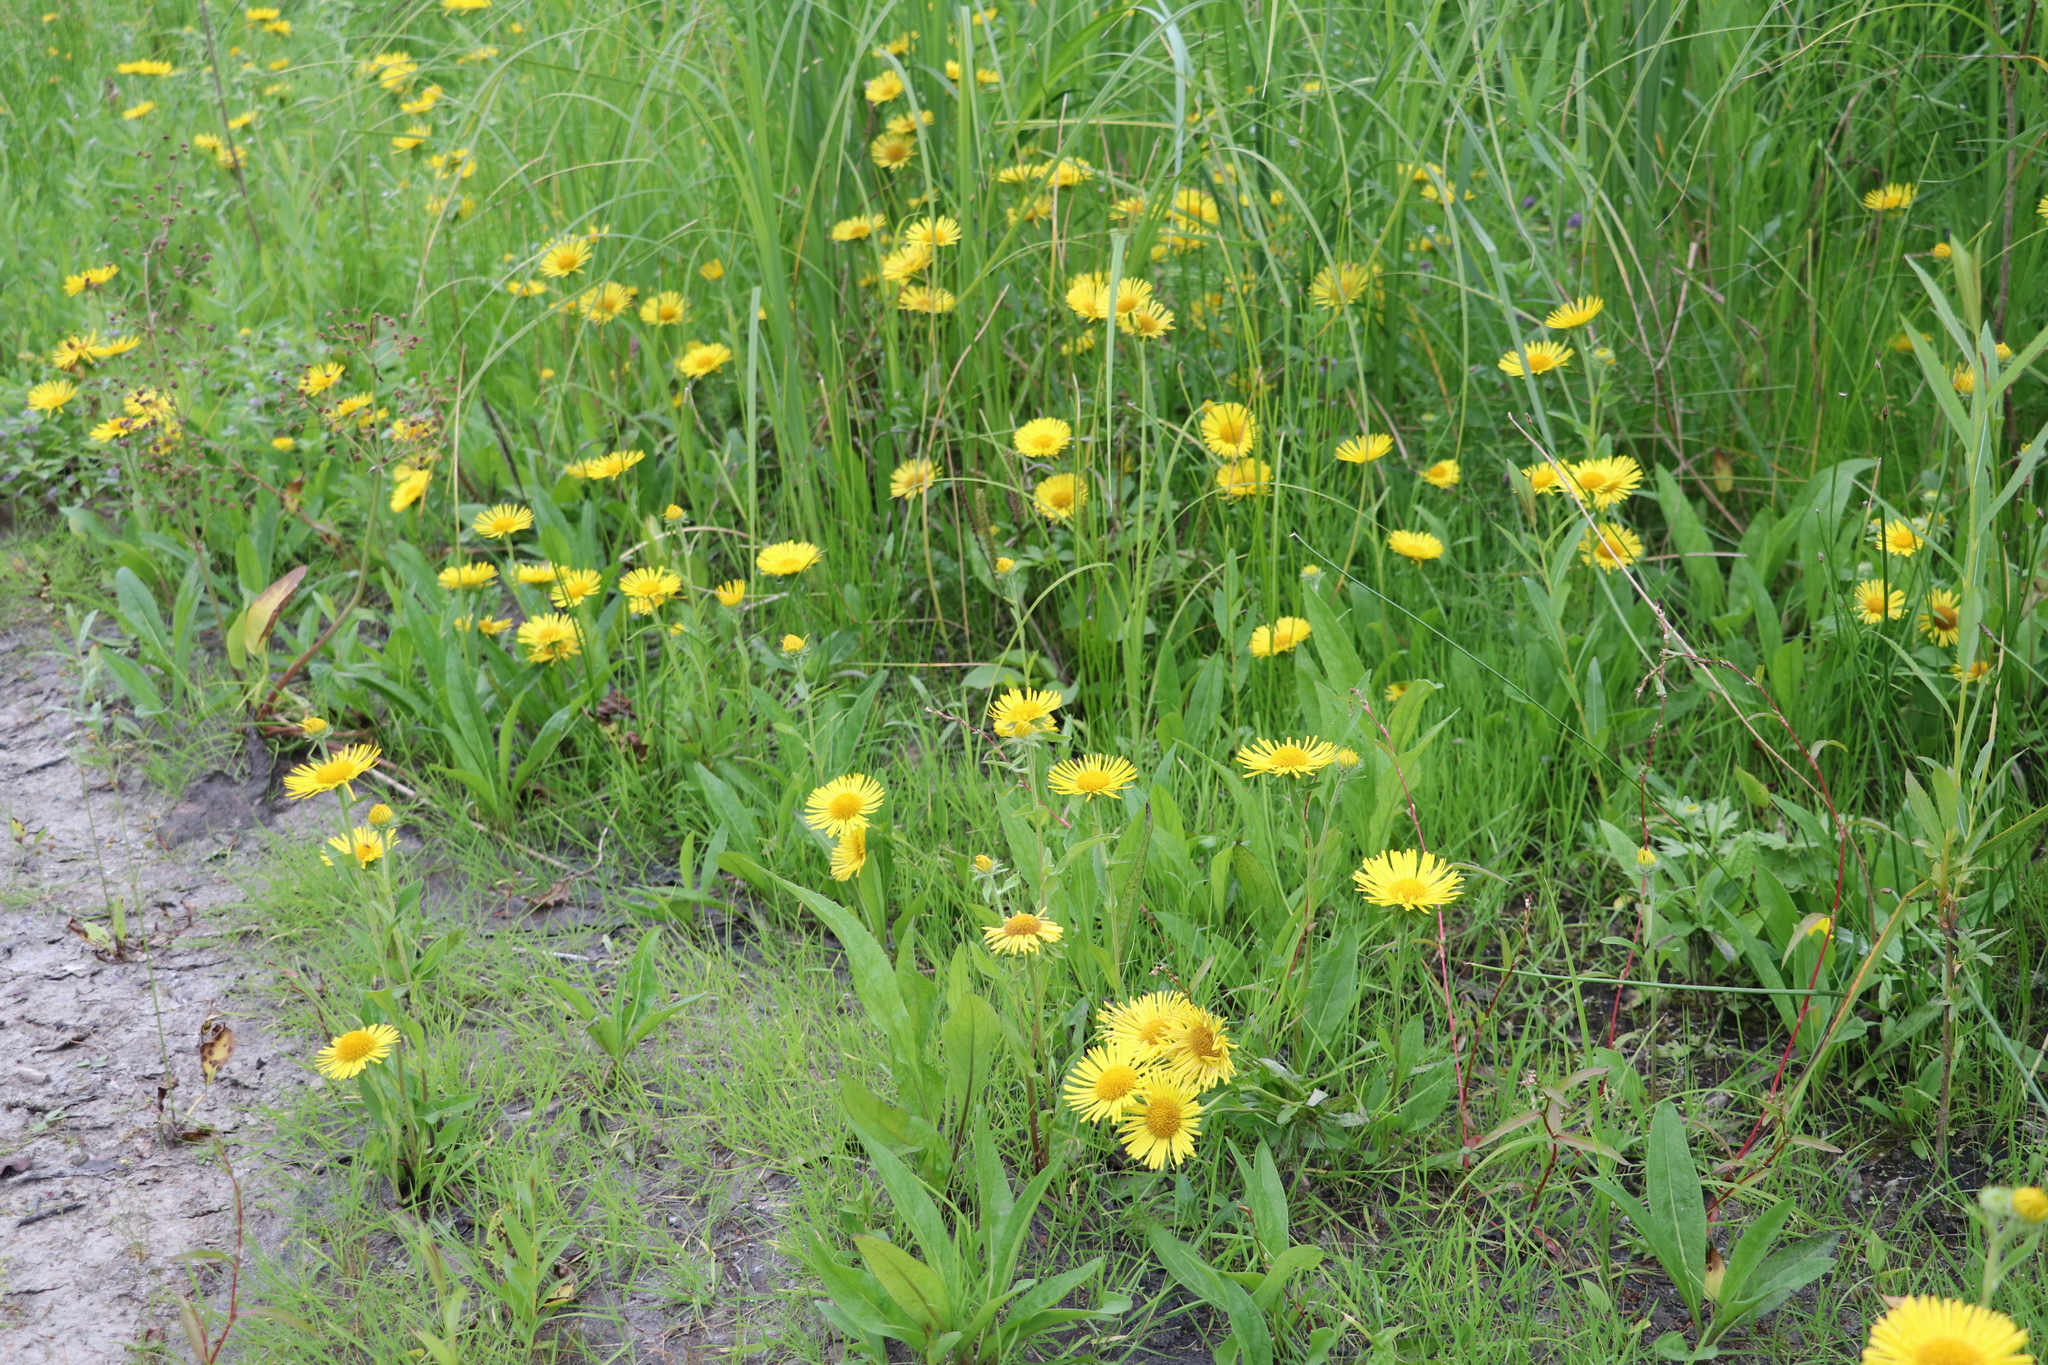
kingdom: Plantae
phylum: Tracheophyta
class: Magnoliopsida
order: Asterales
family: Asteraceae
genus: Pentanema
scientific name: Pentanema britannicum
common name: British elecampane
